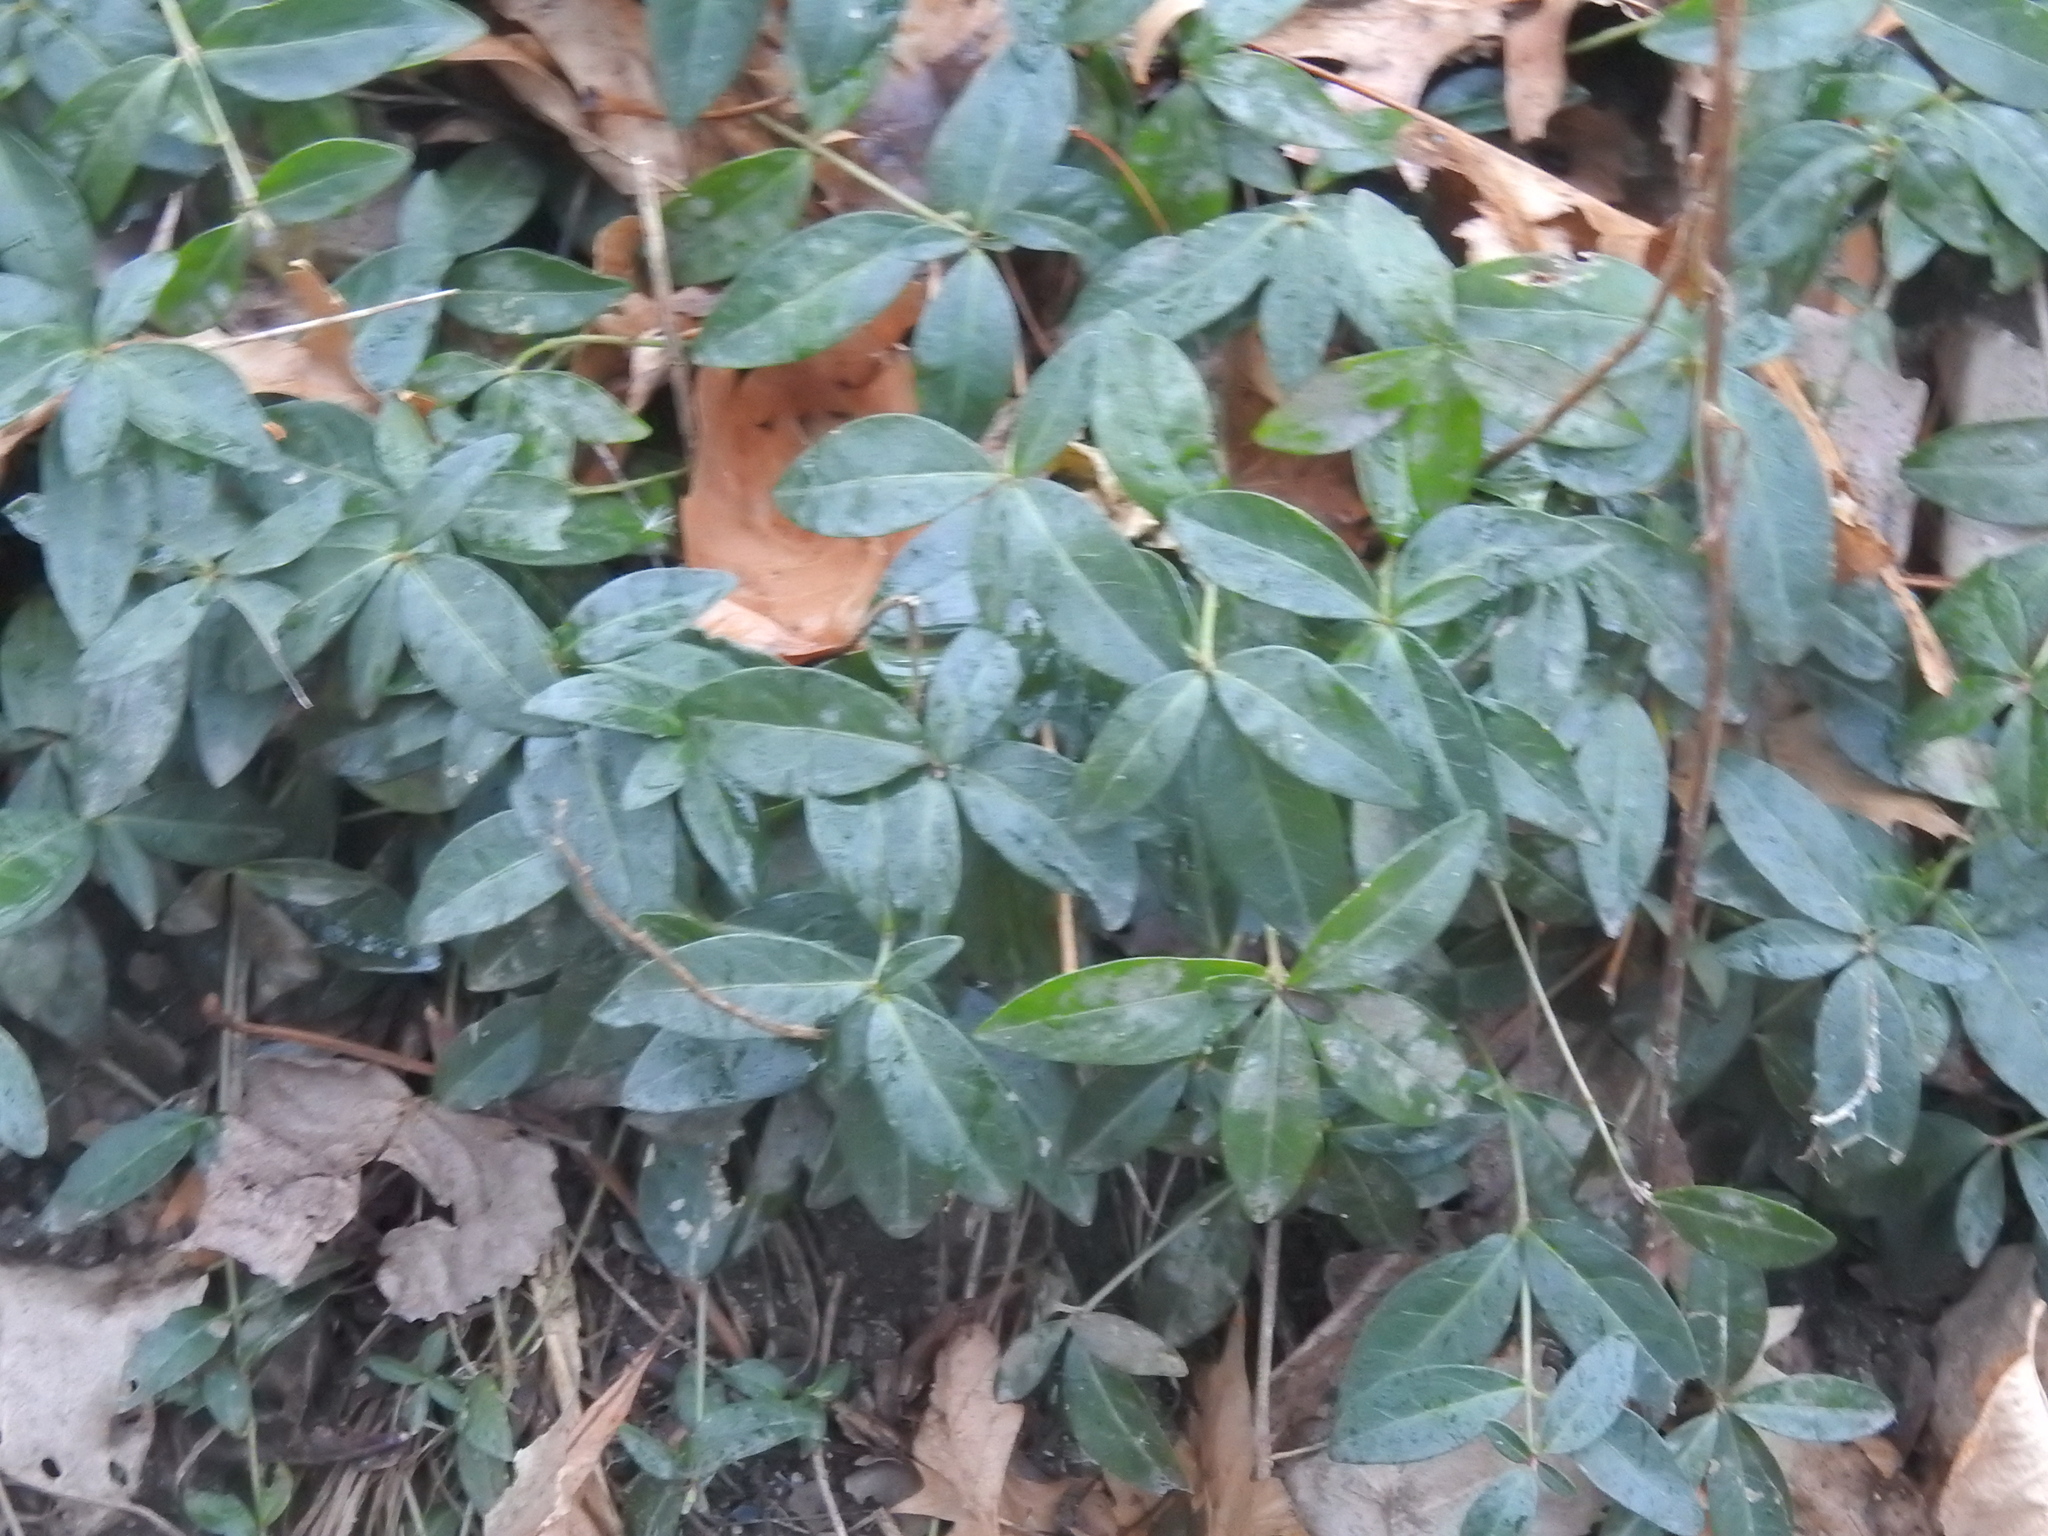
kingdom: Plantae
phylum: Tracheophyta
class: Magnoliopsida
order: Gentianales
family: Apocynaceae
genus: Vinca
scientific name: Vinca minor
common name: Lesser periwinkle
